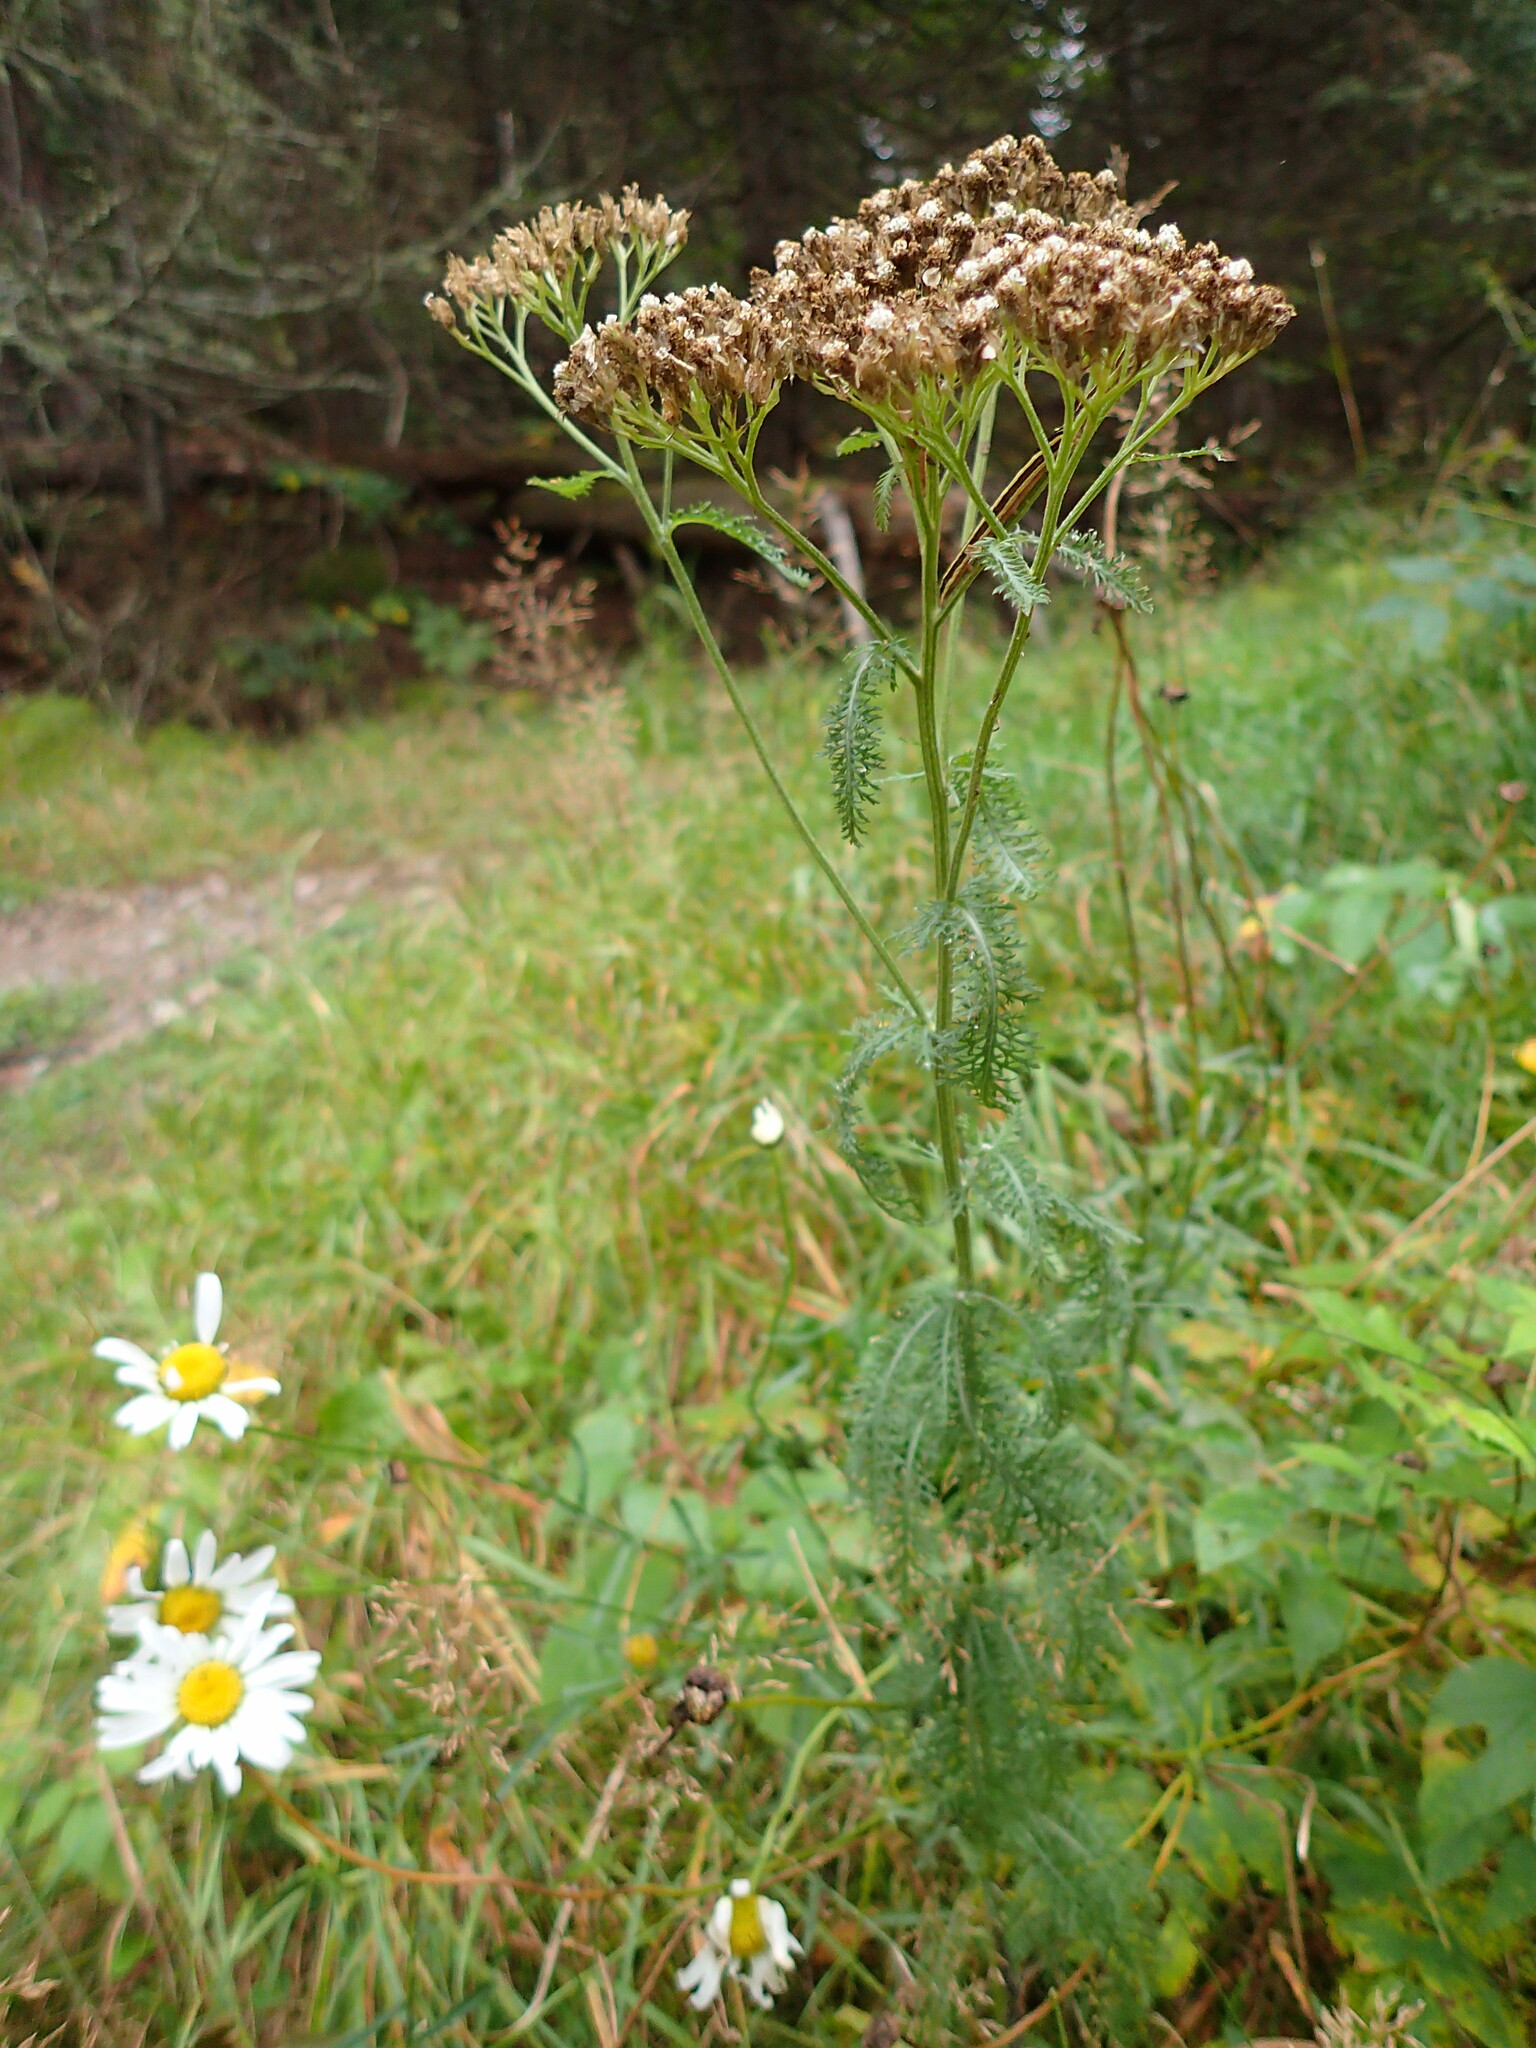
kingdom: Plantae
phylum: Tracheophyta
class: Magnoliopsida
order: Asterales
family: Asteraceae
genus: Achillea
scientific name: Achillea millefolium
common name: Yarrow
